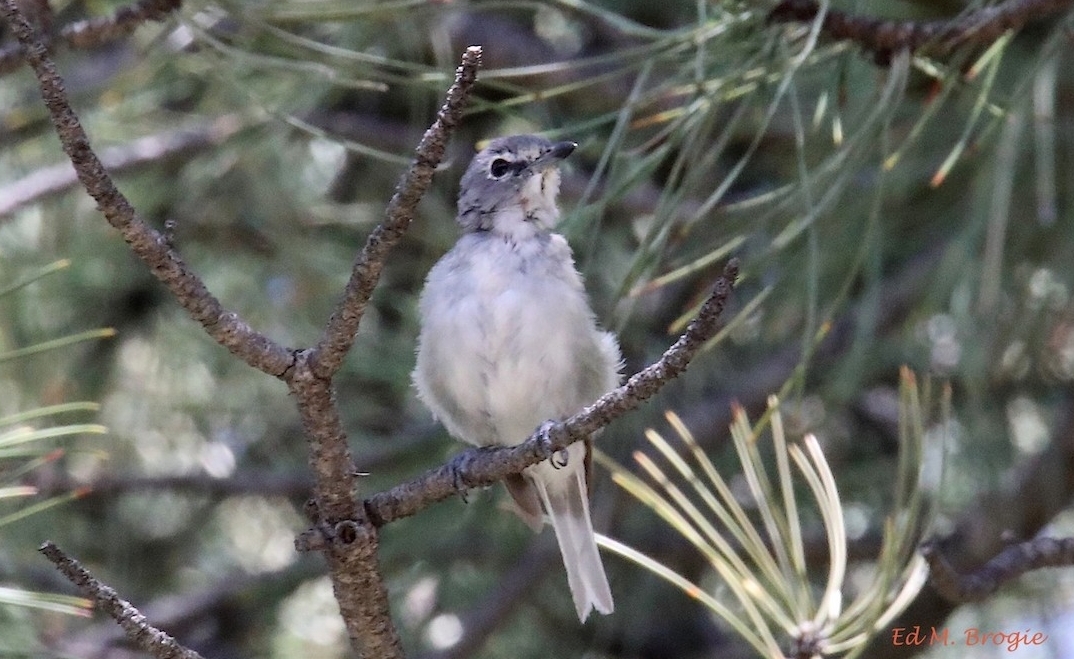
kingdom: Animalia
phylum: Chordata
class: Aves
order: Passeriformes
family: Vireonidae
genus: Vireo
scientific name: Vireo plumbeus
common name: Plumbeous vireo
